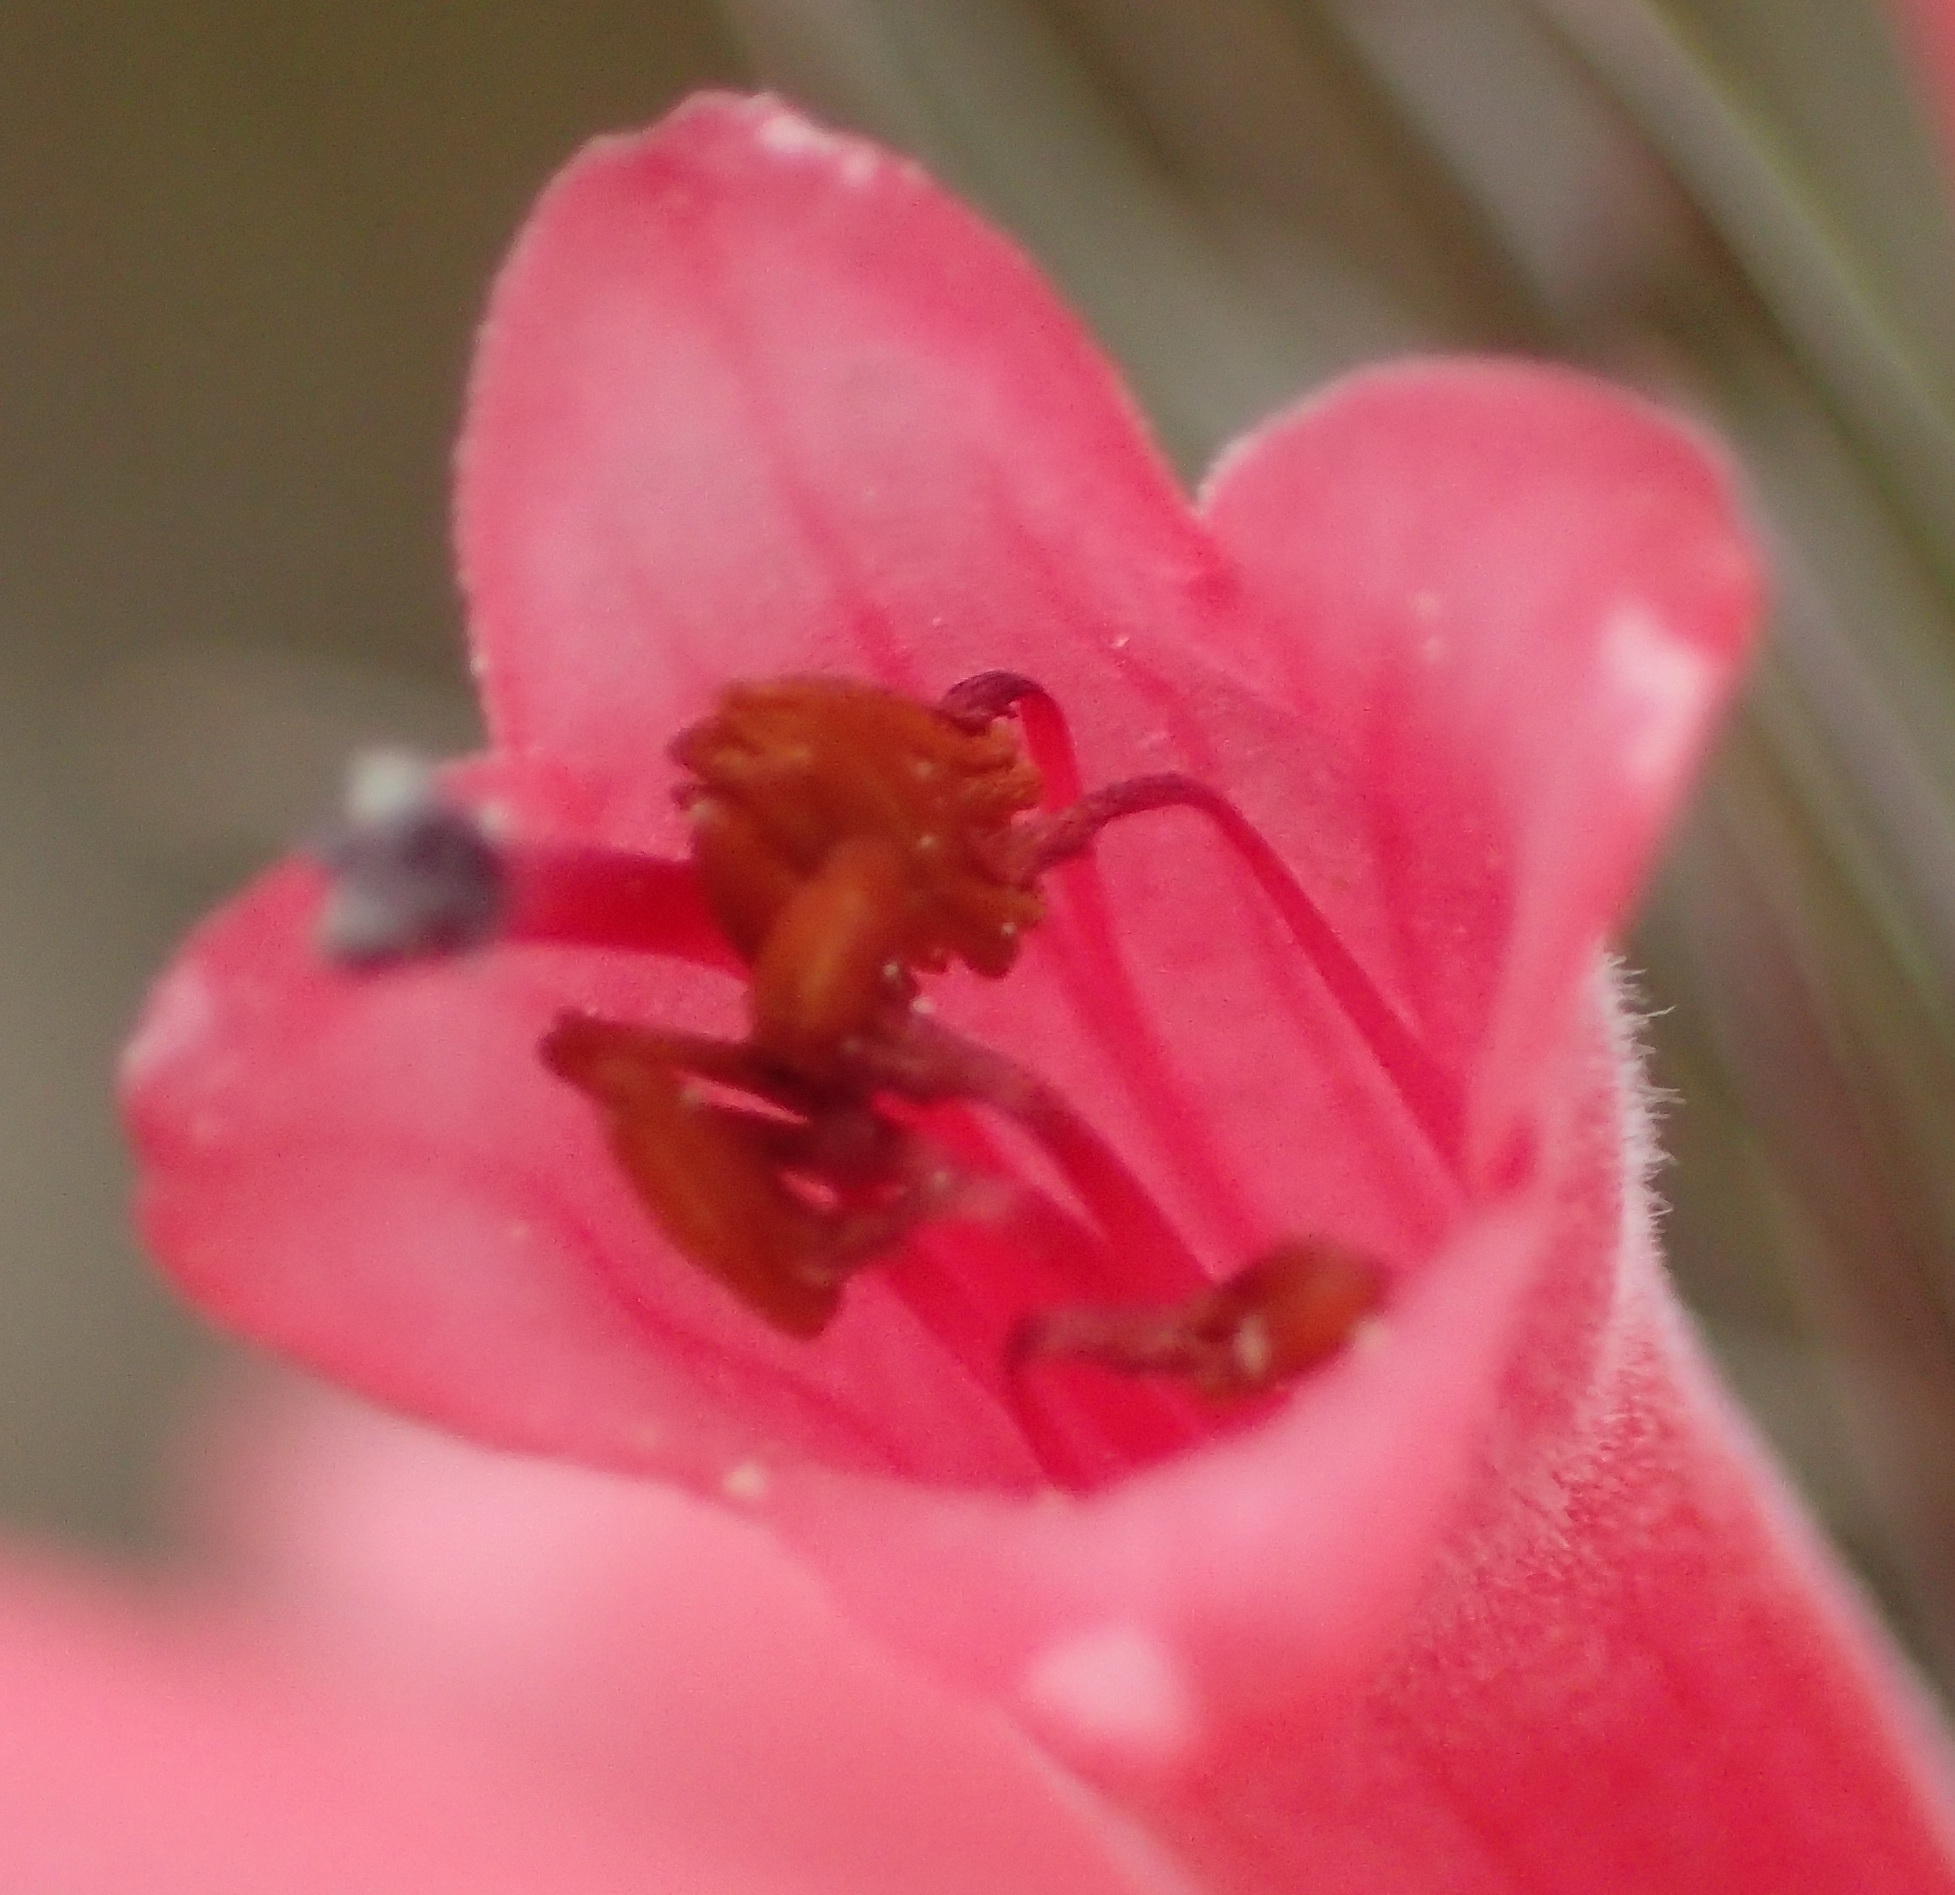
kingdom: Plantae
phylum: Tracheophyta
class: Magnoliopsida
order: Ericales
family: Ericaceae
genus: Erica
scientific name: Erica vestita
